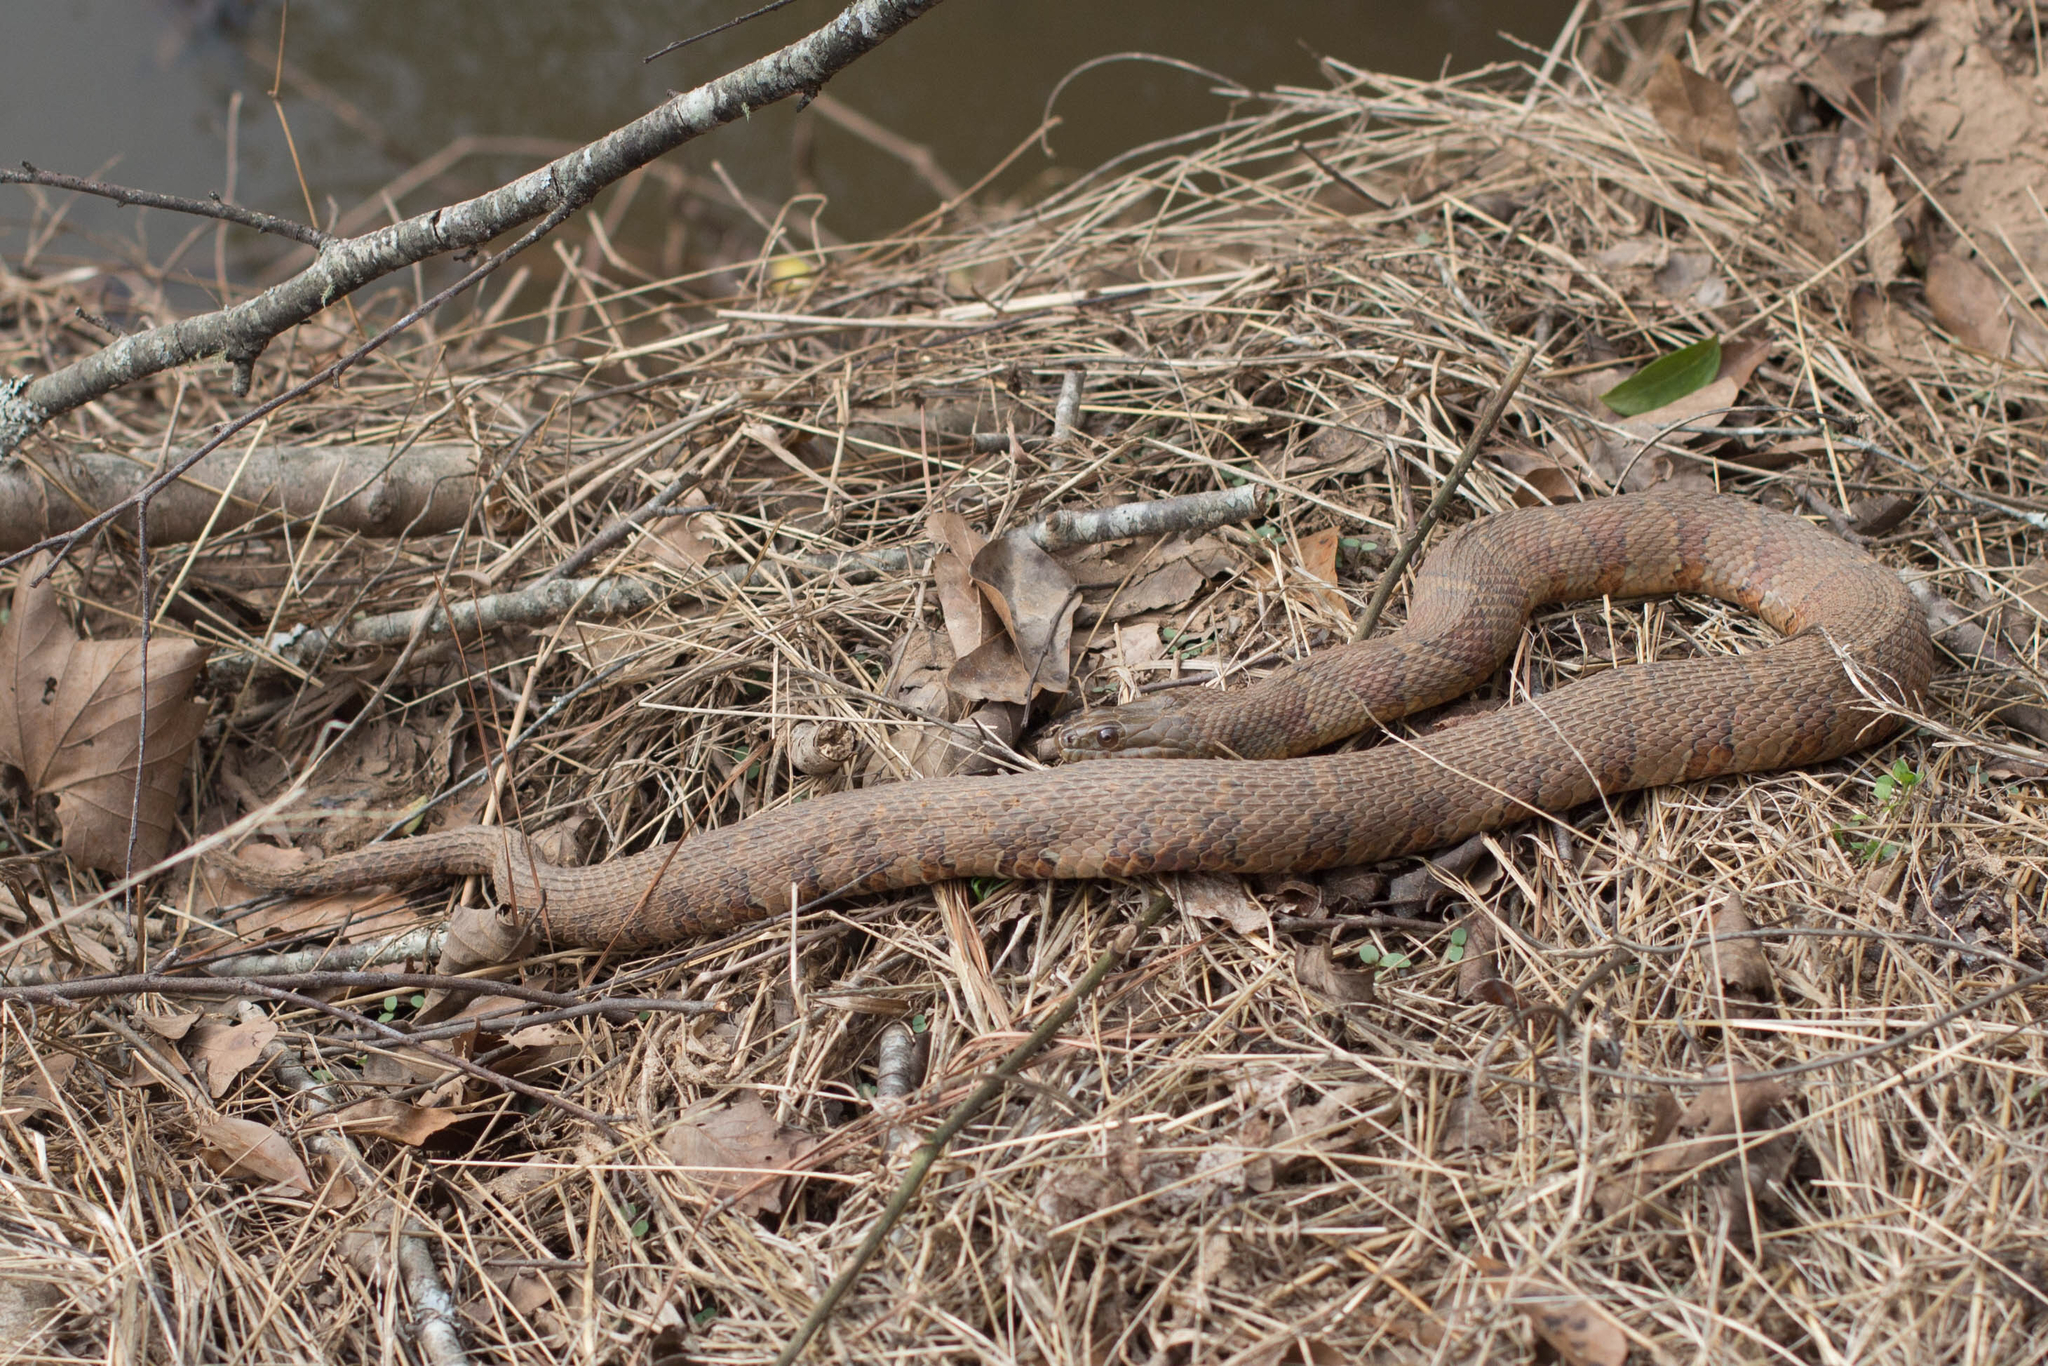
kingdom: Animalia
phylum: Chordata
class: Squamata
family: Colubridae
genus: Nerodia
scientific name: Nerodia sipedon
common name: Northern water snake
